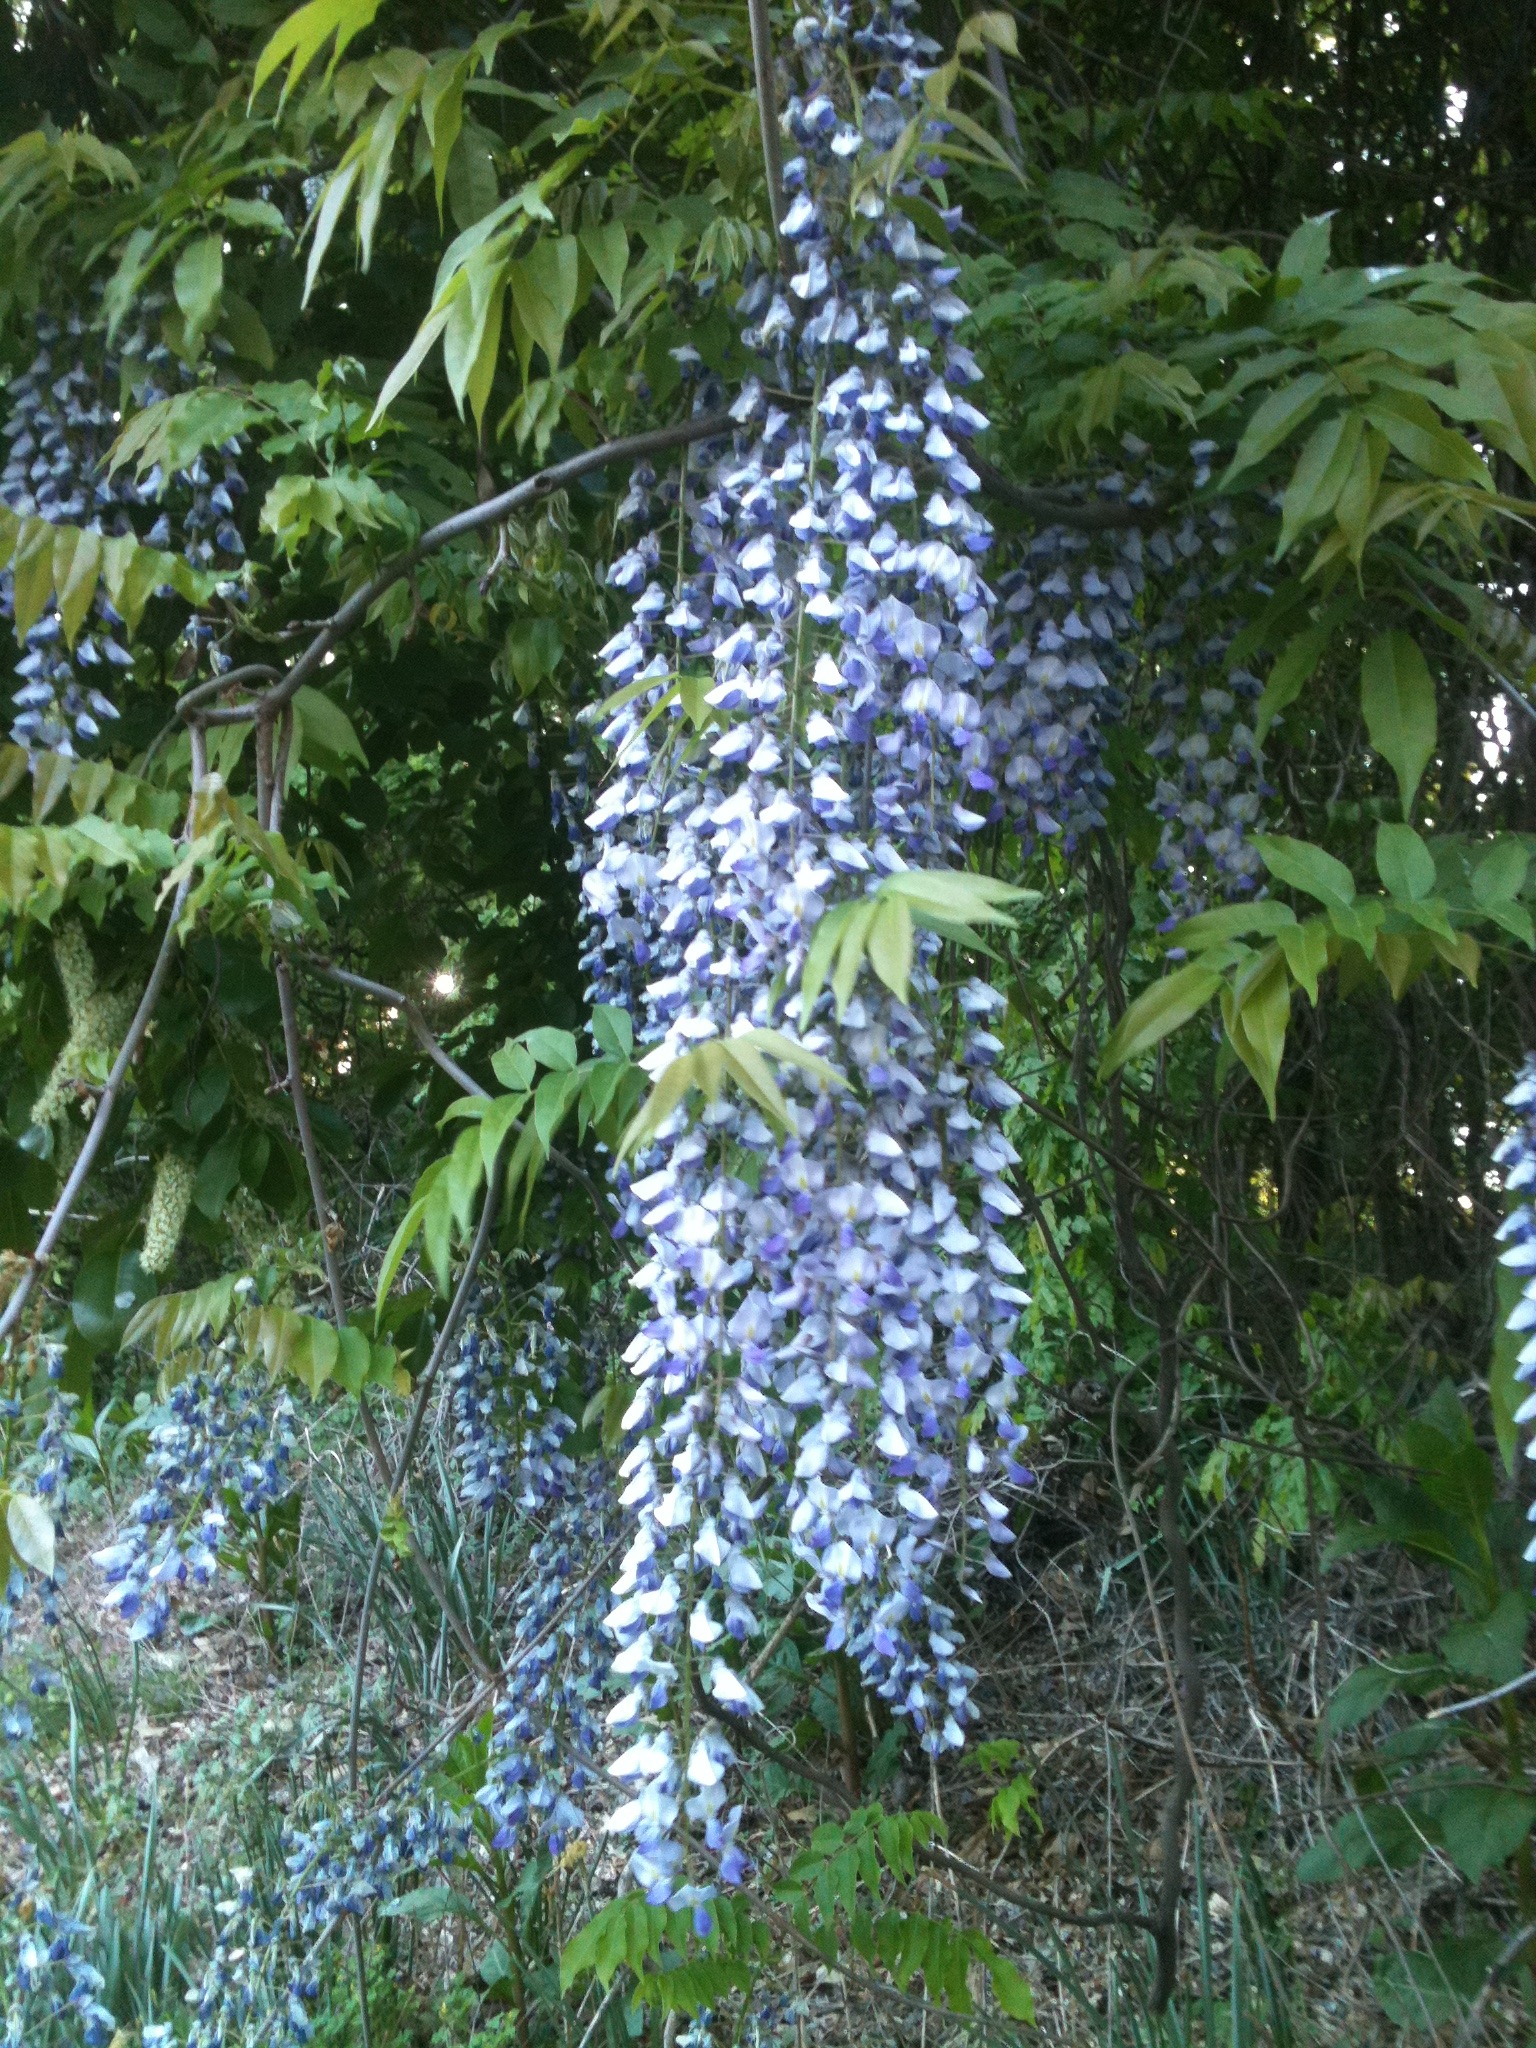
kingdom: Plantae
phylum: Tracheophyta
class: Magnoliopsida
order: Fabales
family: Fabaceae
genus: Wisteria
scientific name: Wisteria sinensis
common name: Chinese wisteria
